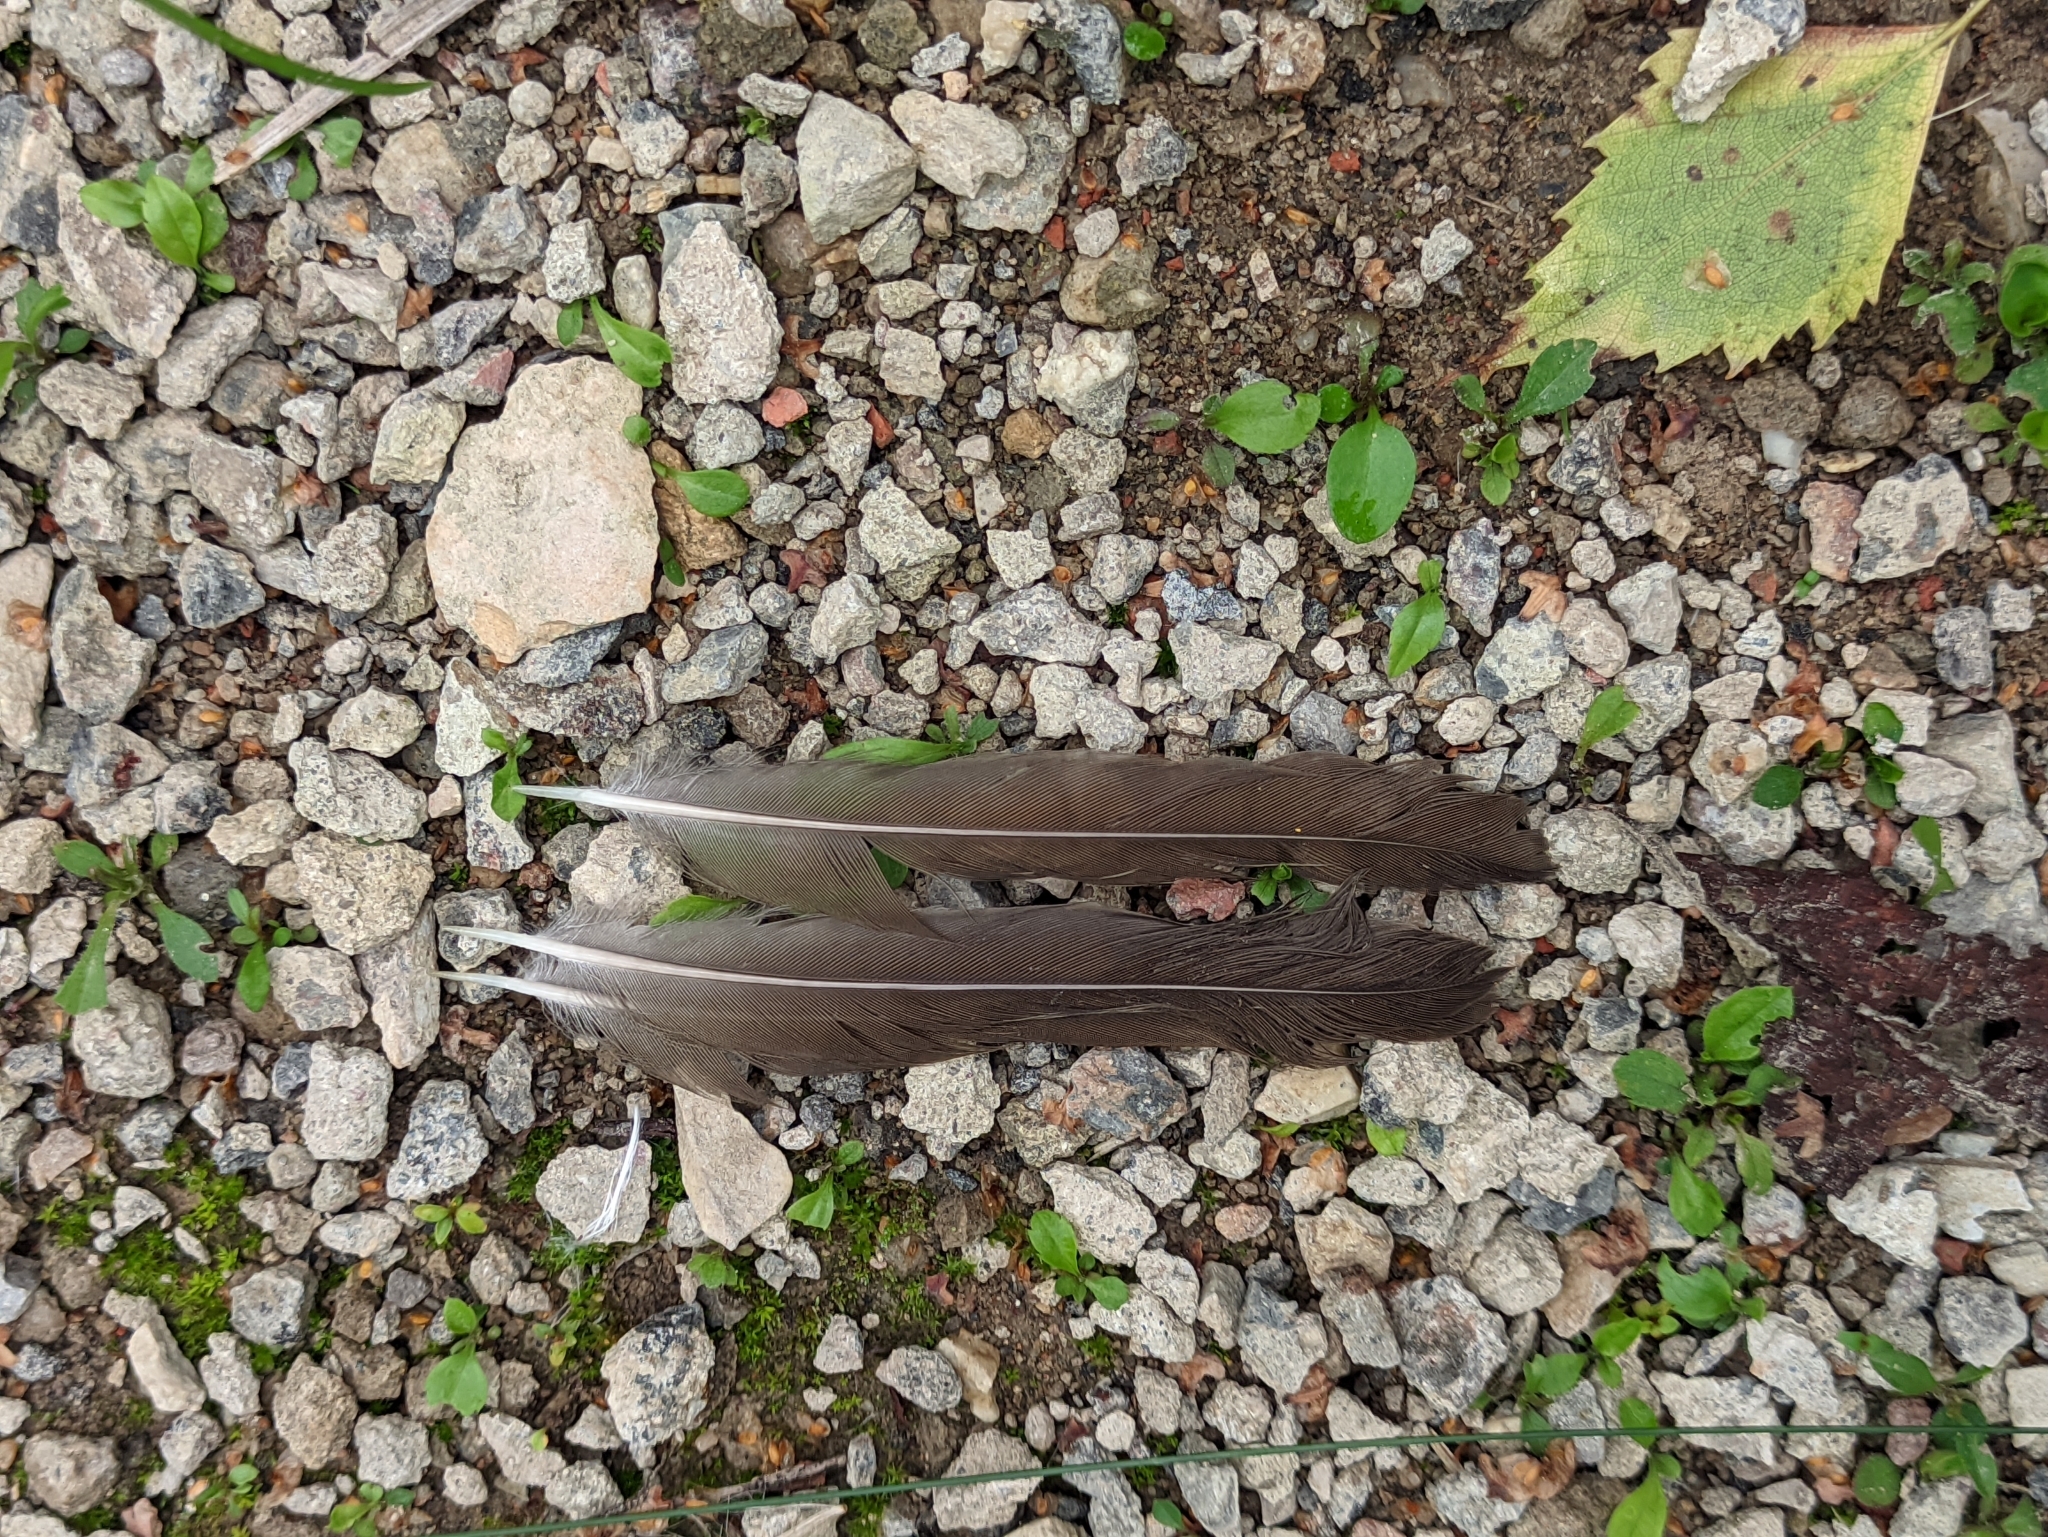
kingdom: Animalia
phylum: Chordata
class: Aves
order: Passeriformes
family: Turdidae
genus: Turdus
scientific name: Turdus philomelos
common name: Song thrush
